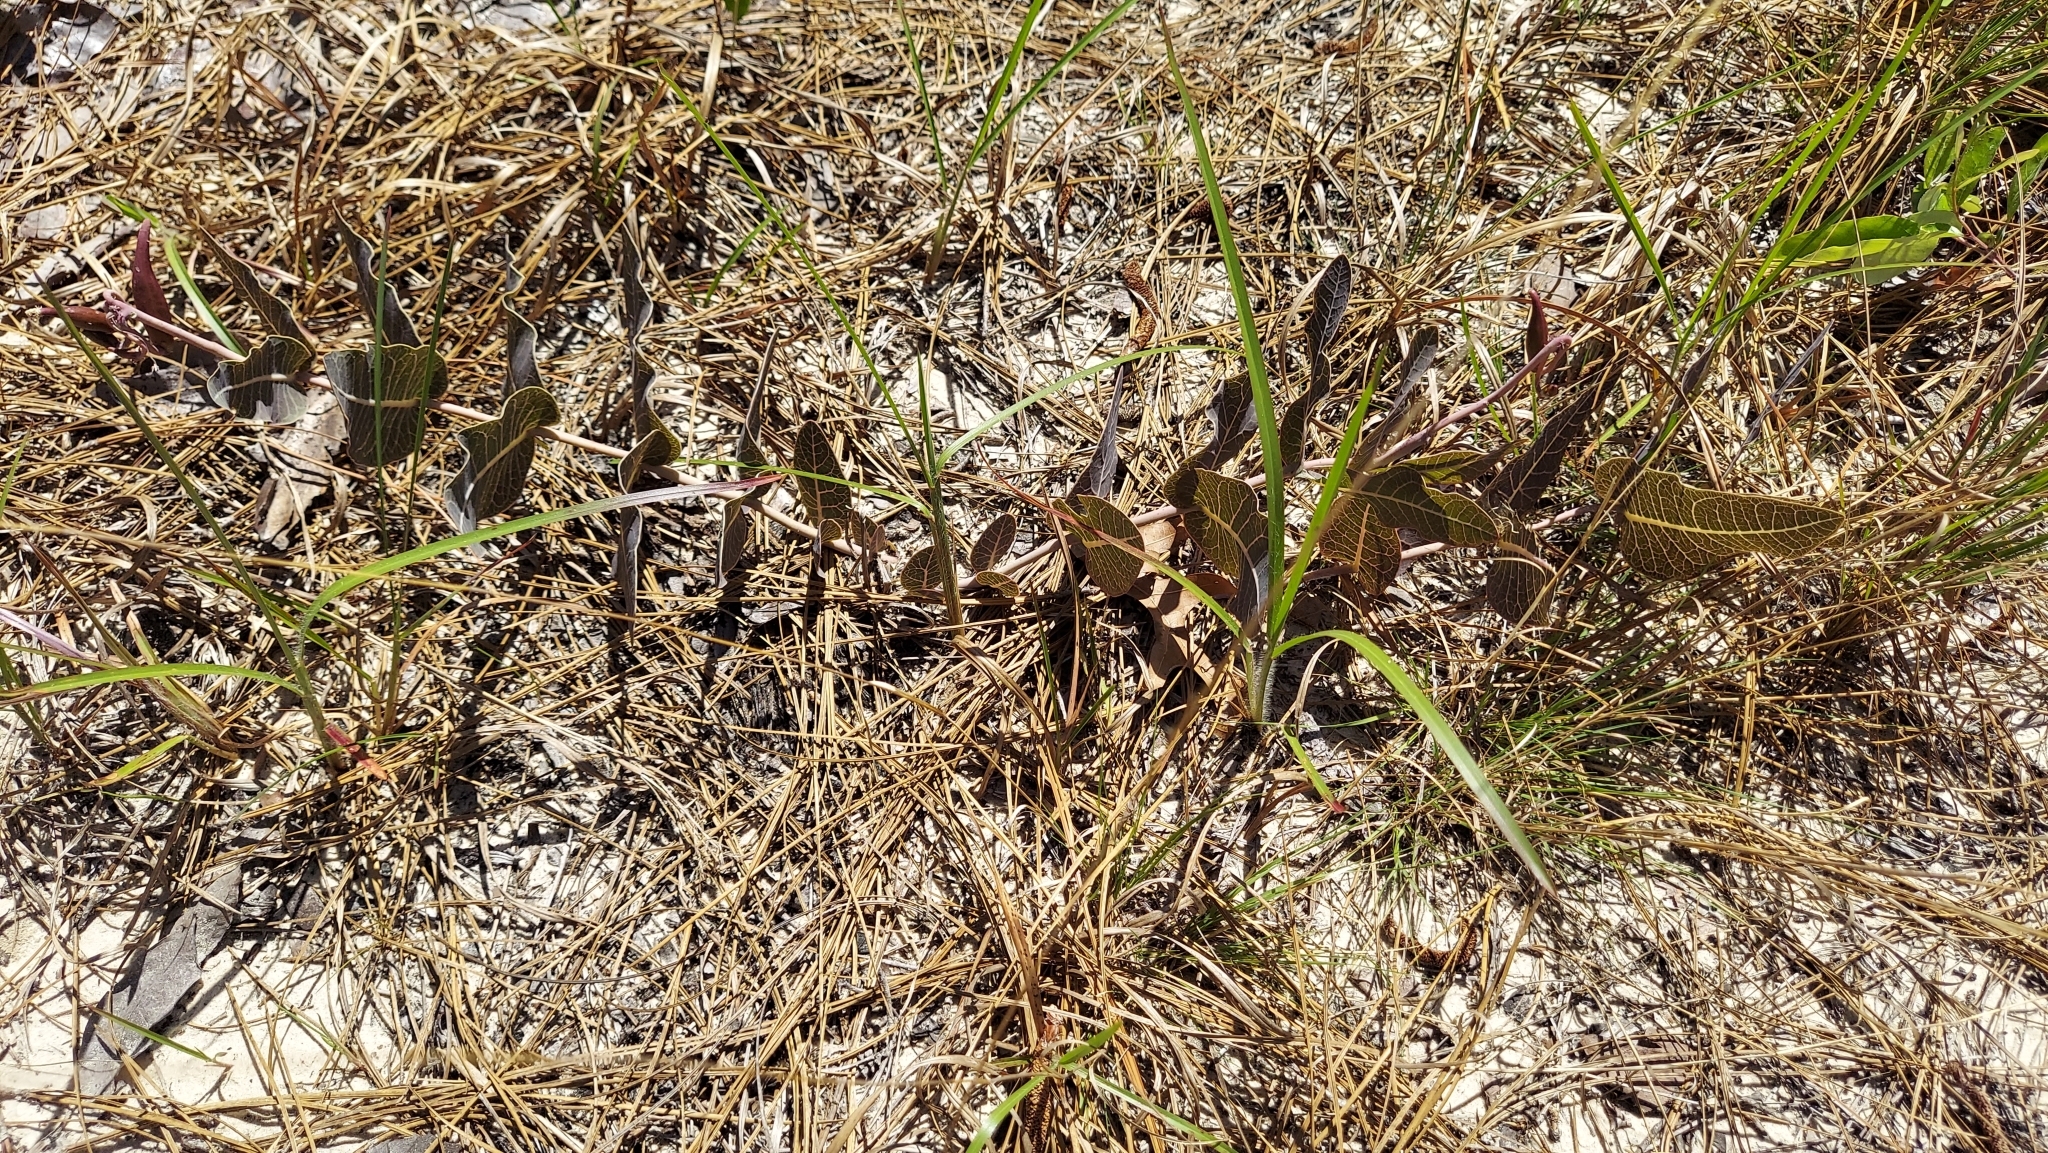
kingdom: Plantae
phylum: Tracheophyta
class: Magnoliopsida
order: Gentianales
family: Apocynaceae
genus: Asclepias
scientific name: Asclepias humistrata
